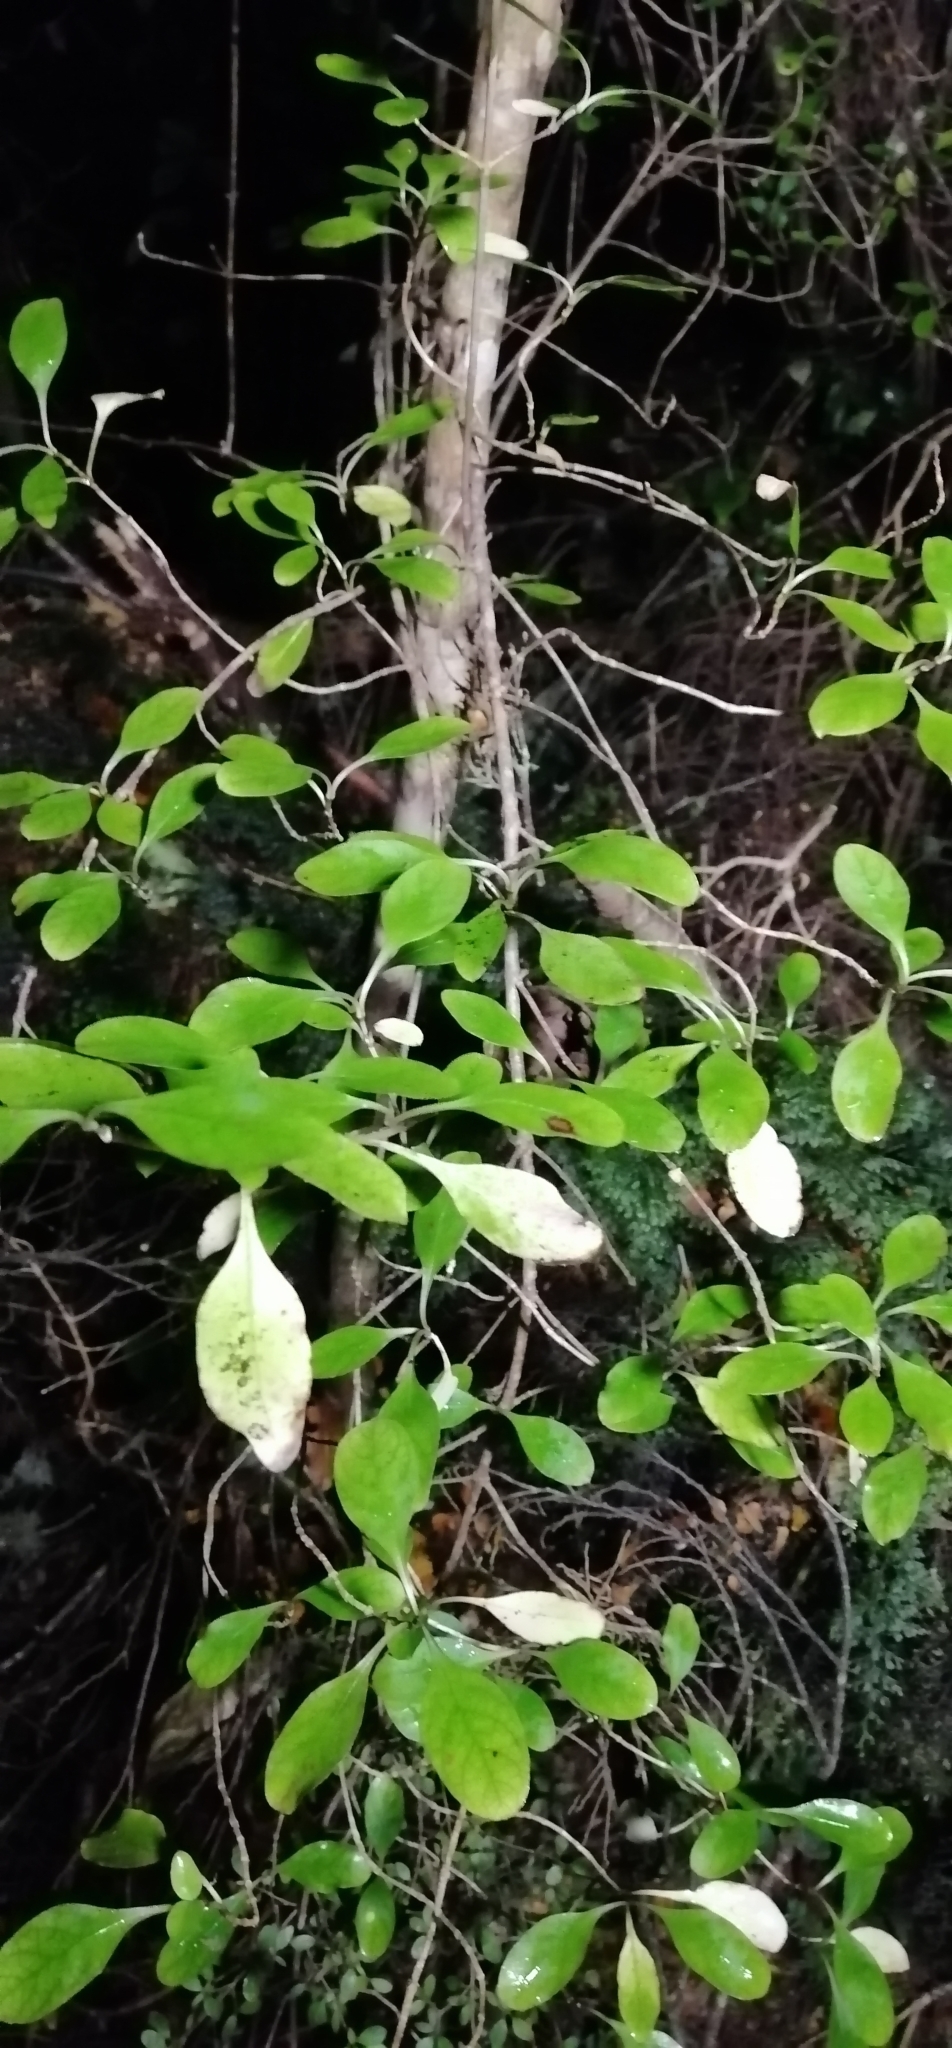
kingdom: Plantae
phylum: Tracheophyta
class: Magnoliopsida
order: Gentianales
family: Rubiaceae
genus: Coprosma
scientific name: Coprosma foetidissima
